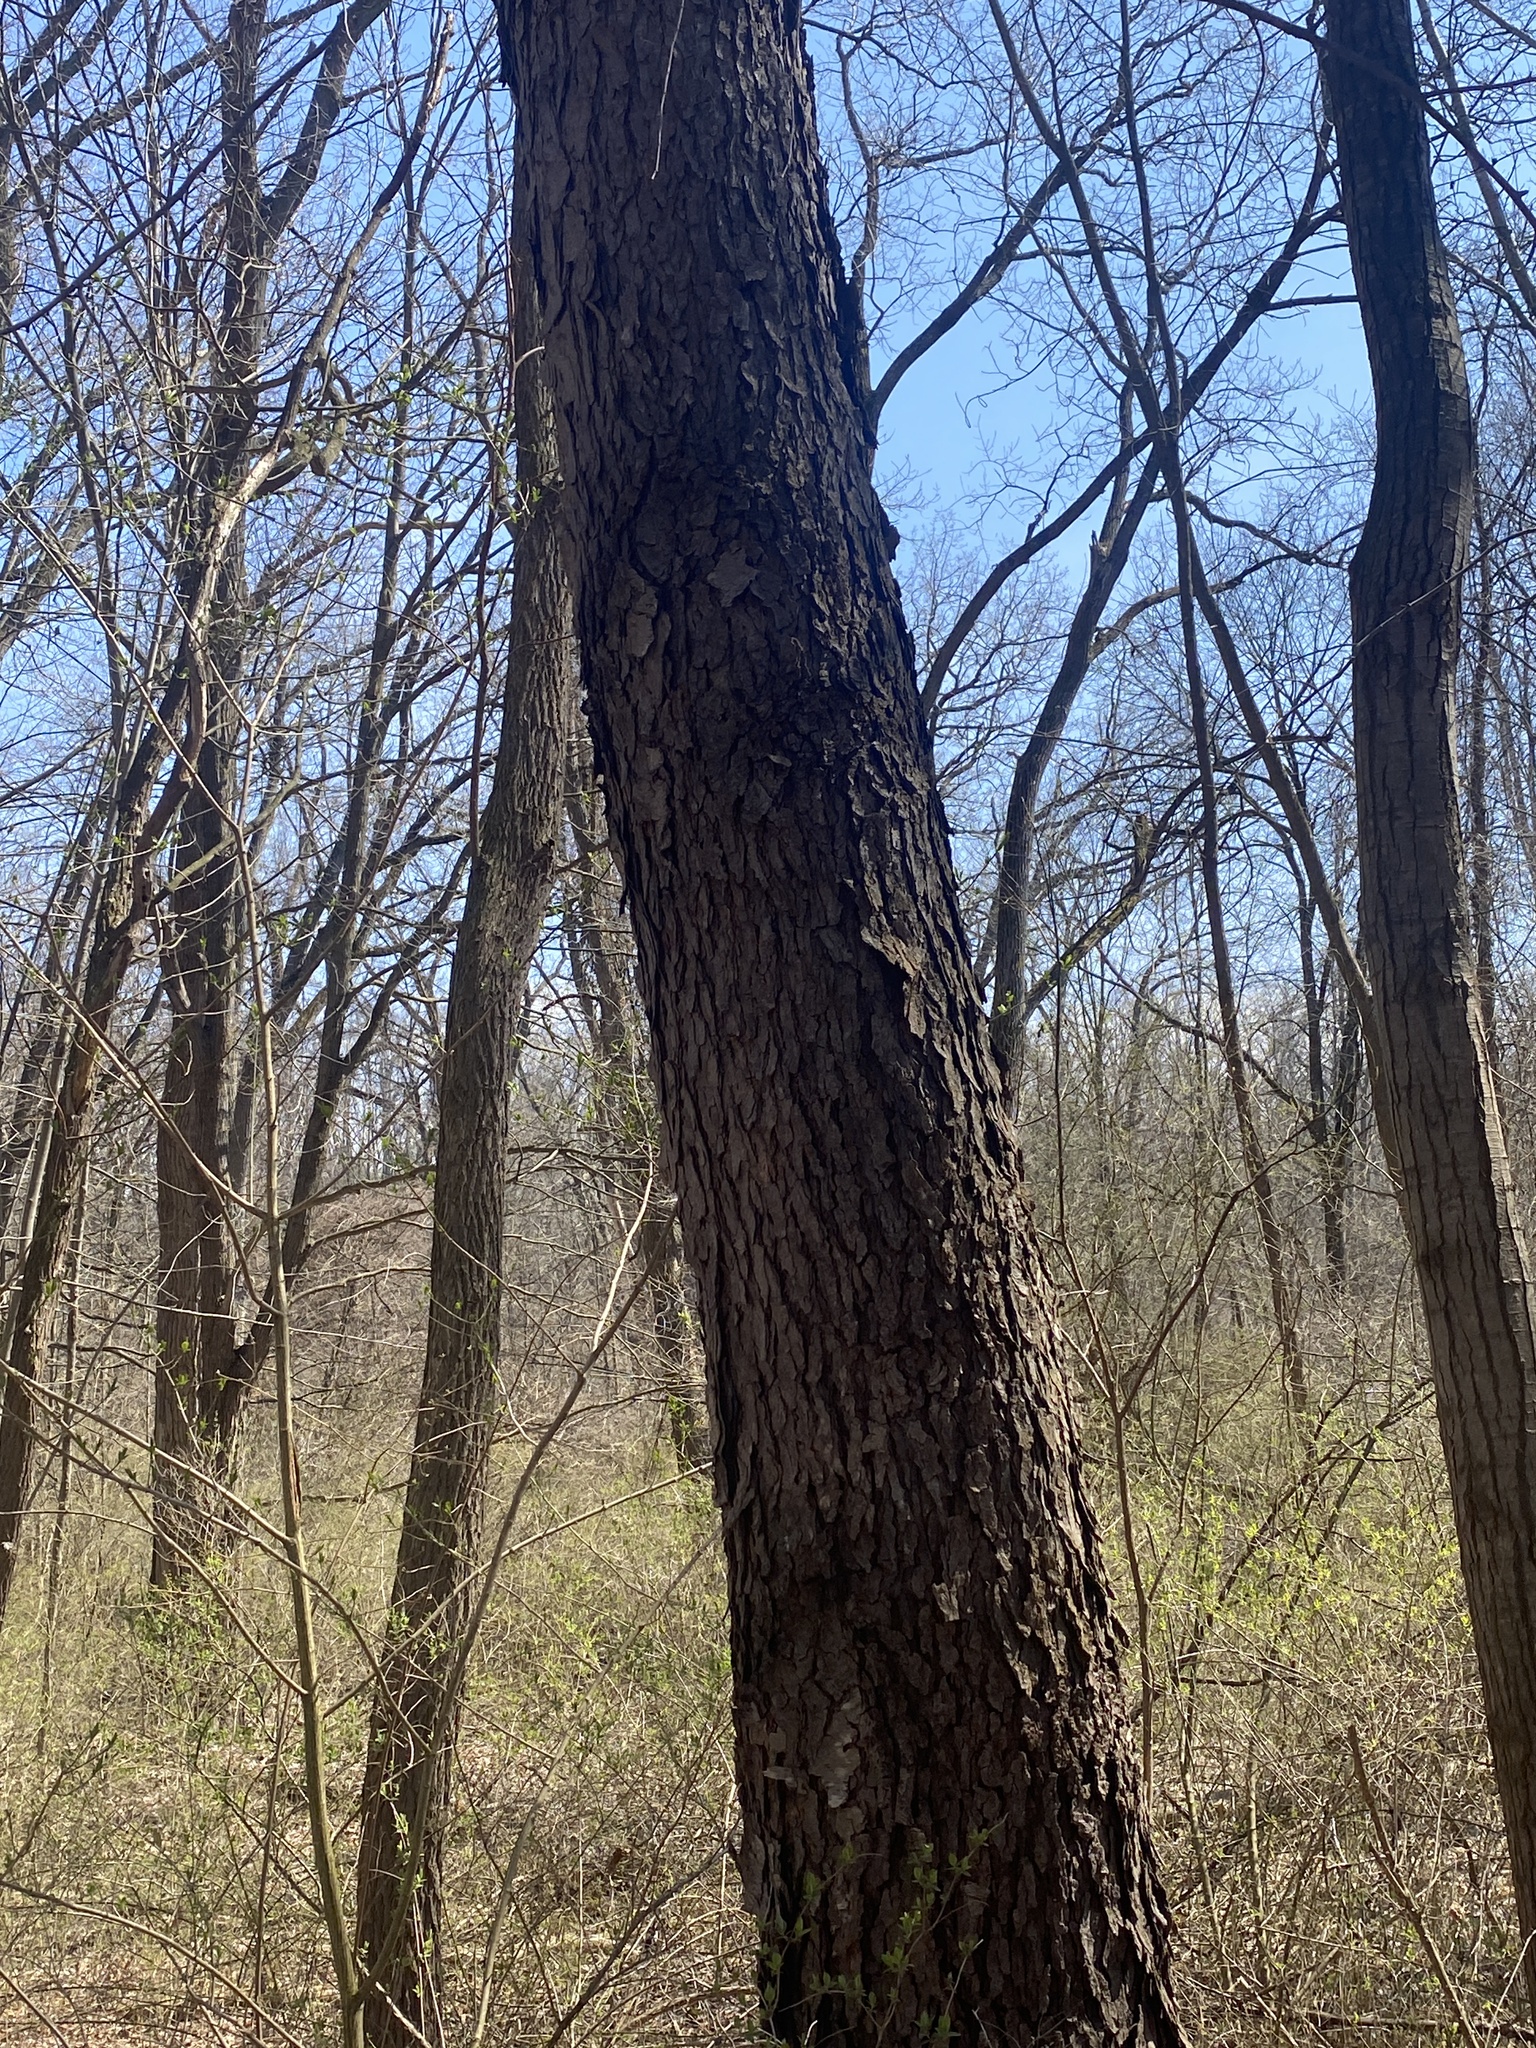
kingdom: Plantae
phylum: Tracheophyta
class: Magnoliopsida
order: Rosales
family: Rosaceae
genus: Prunus
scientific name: Prunus serotina
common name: Black cherry
